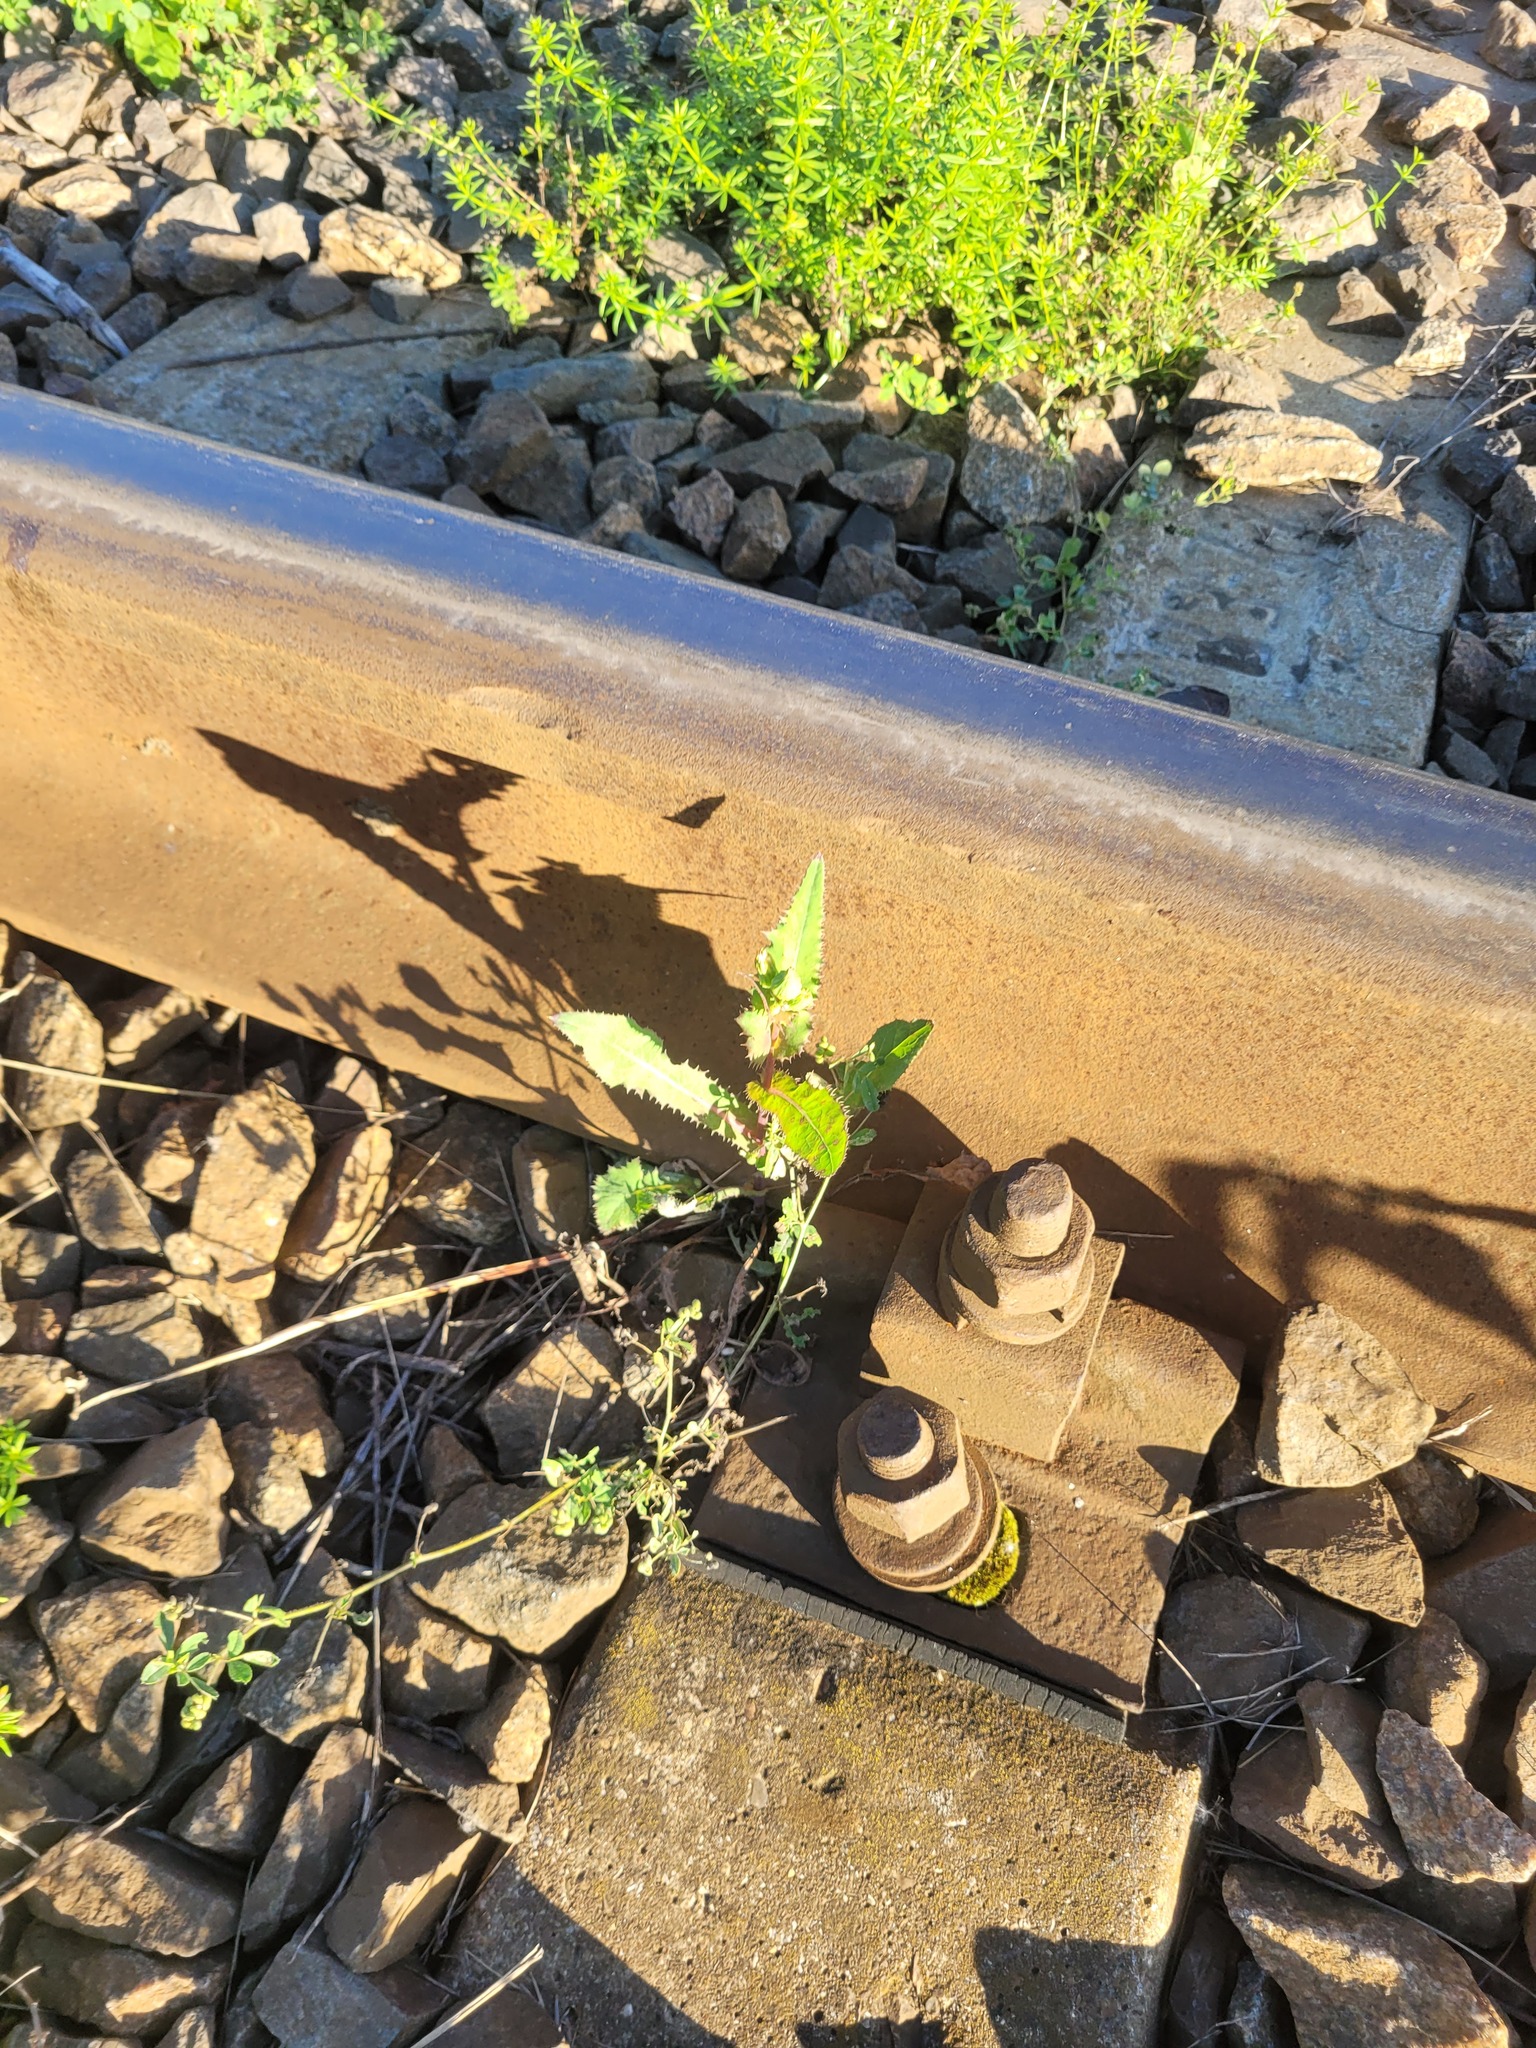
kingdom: Plantae
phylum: Tracheophyta
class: Magnoliopsida
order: Asterales
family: Asteraceae
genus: Sonchus
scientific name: Sonchus asper
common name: Prickly sow-thistle
